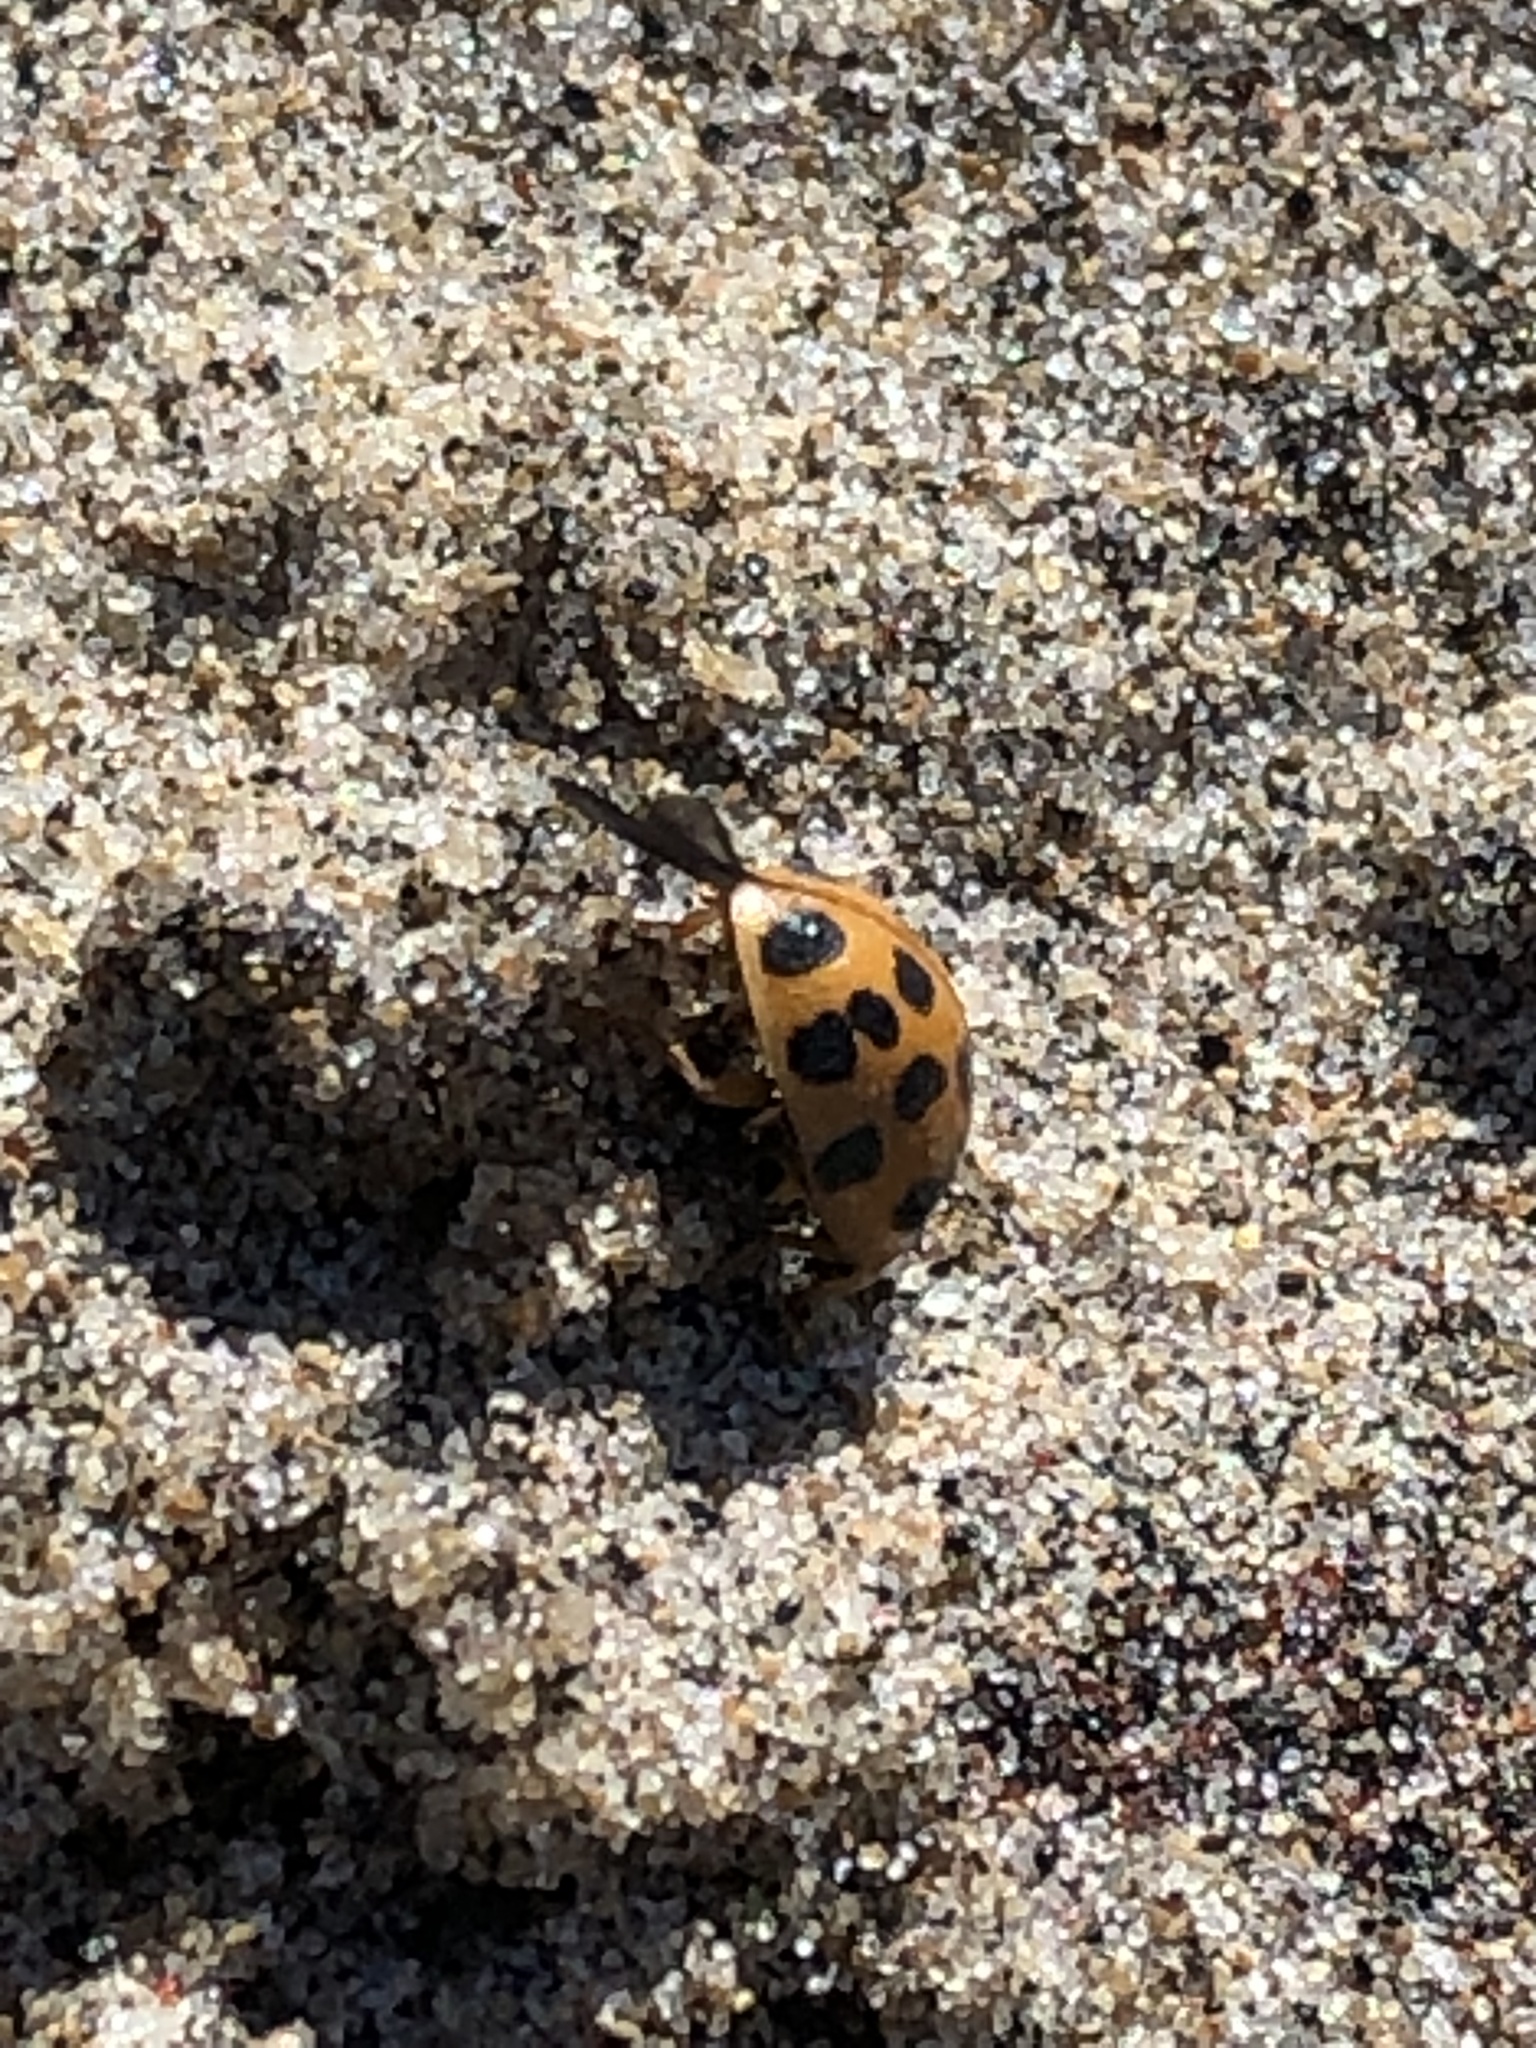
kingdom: Animalia
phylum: Arthropoda
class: Insecta
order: Coleoptera
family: Coccinellidae
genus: Harmonia
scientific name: Harmonia axyridis
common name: Harlequin ladybird
